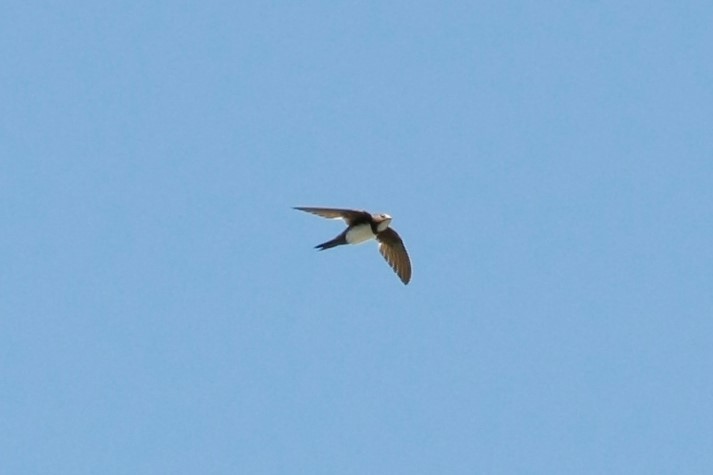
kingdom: Animalia
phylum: Chordata
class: Aves
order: Apodiformes
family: Apodidae
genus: Tachymarptis
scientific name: Tachymarptis melba
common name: Alpine swift
